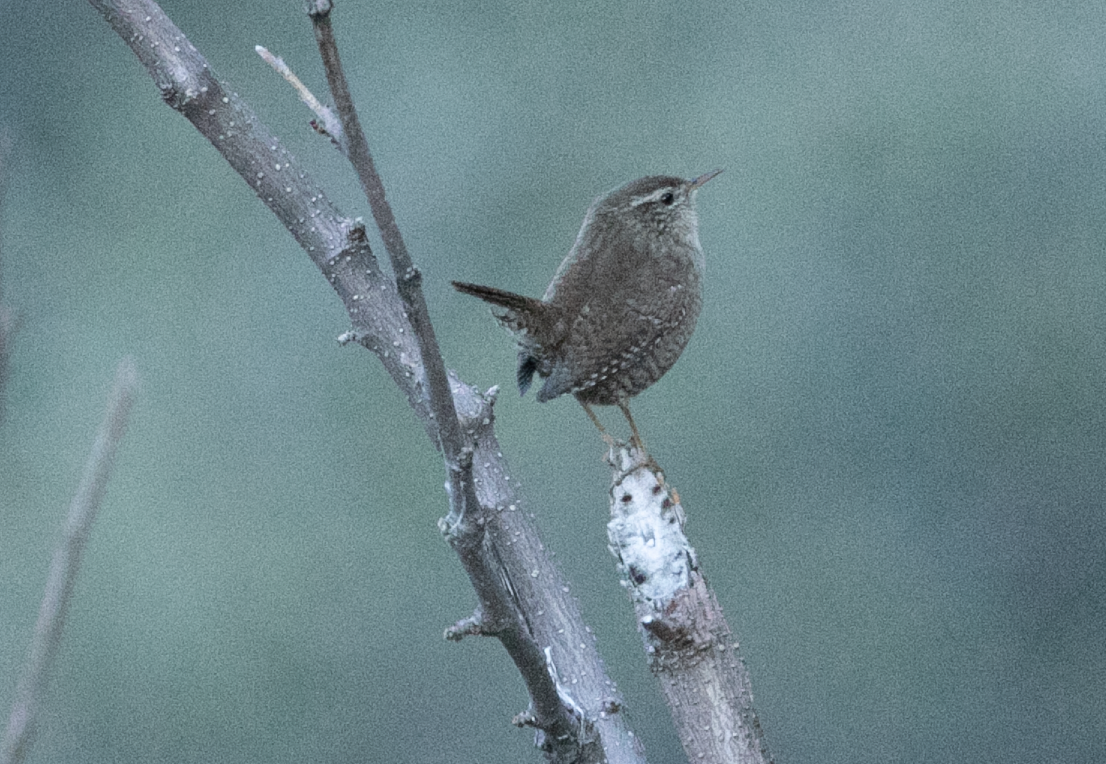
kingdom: Animalia
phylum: Chordata
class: Aves
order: Passeriformes
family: Troglodytidae
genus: Troglodytes
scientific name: Troglodytes troglodytes
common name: Eurasian wren
